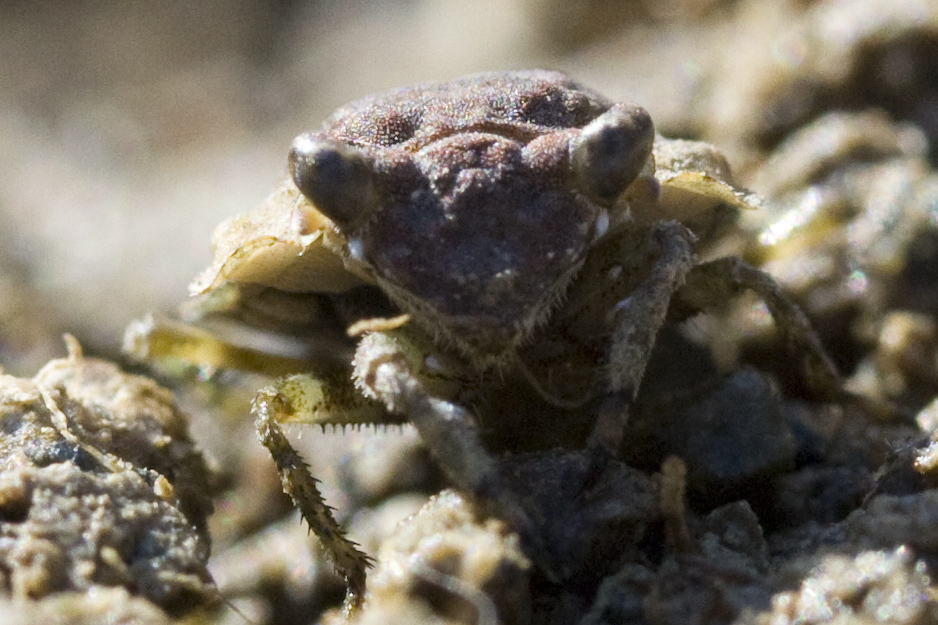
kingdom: Animalia
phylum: Arthropoda
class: Insecta
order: Hemiptera
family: Gelastocoridae
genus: Gelastocoris
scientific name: Gelastocoris oculatus
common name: Toad bug
